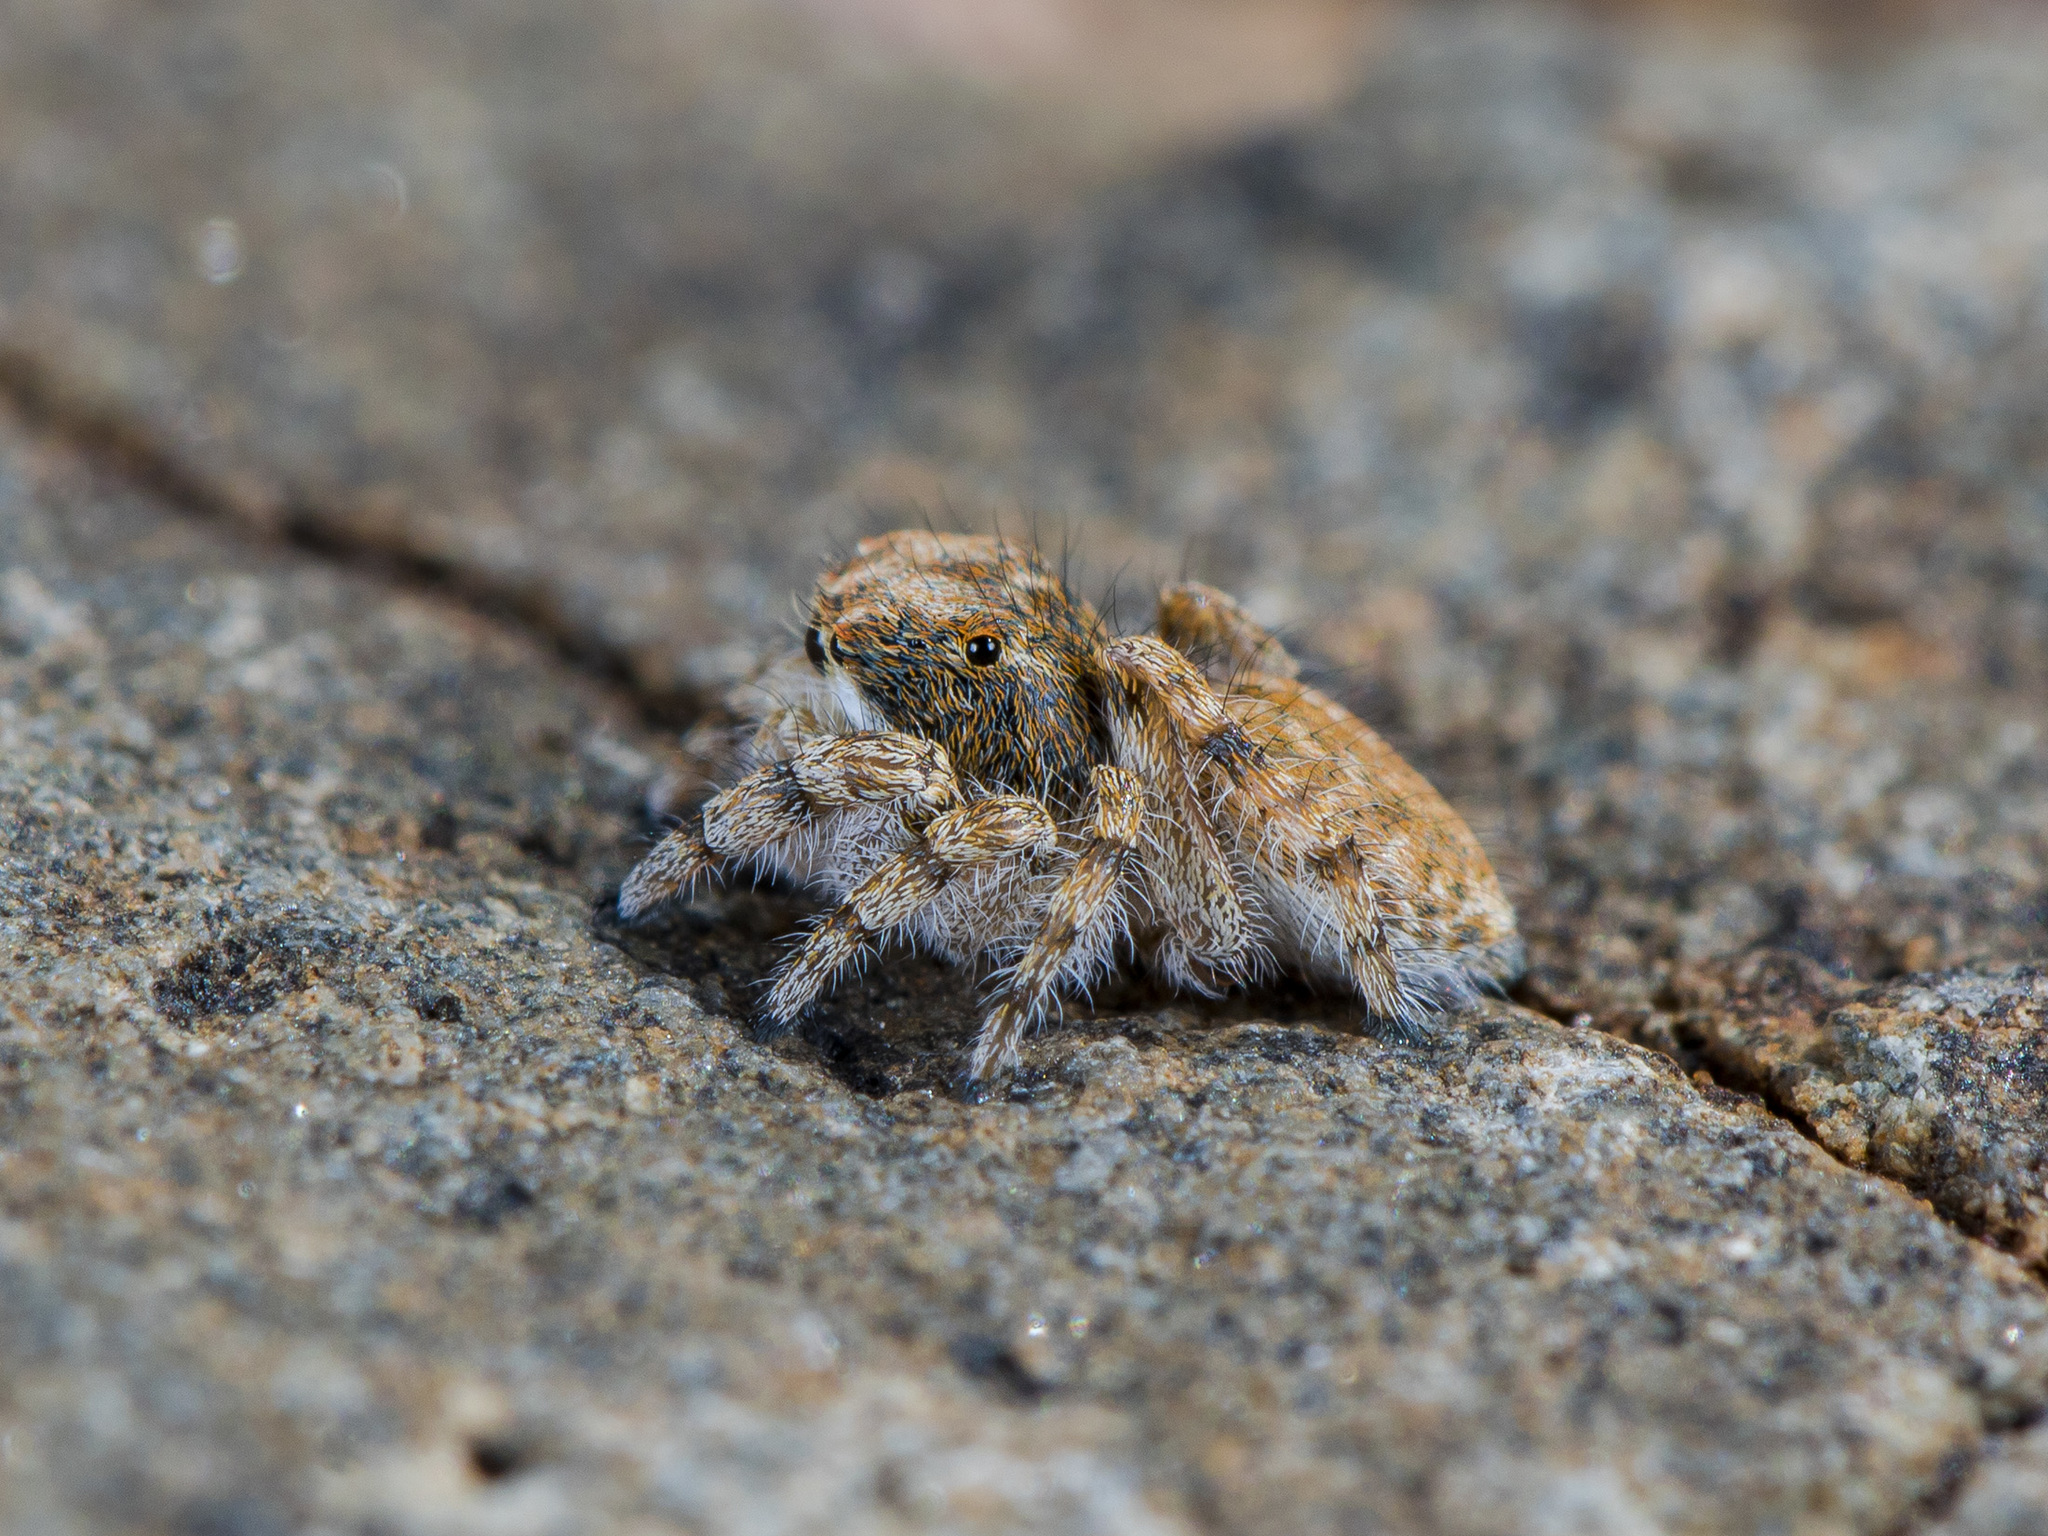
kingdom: Animalia
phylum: Arthropoda
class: Arachnida
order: Araneae
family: Salticidae
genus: Yllenus
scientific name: Yllenus charynensis
